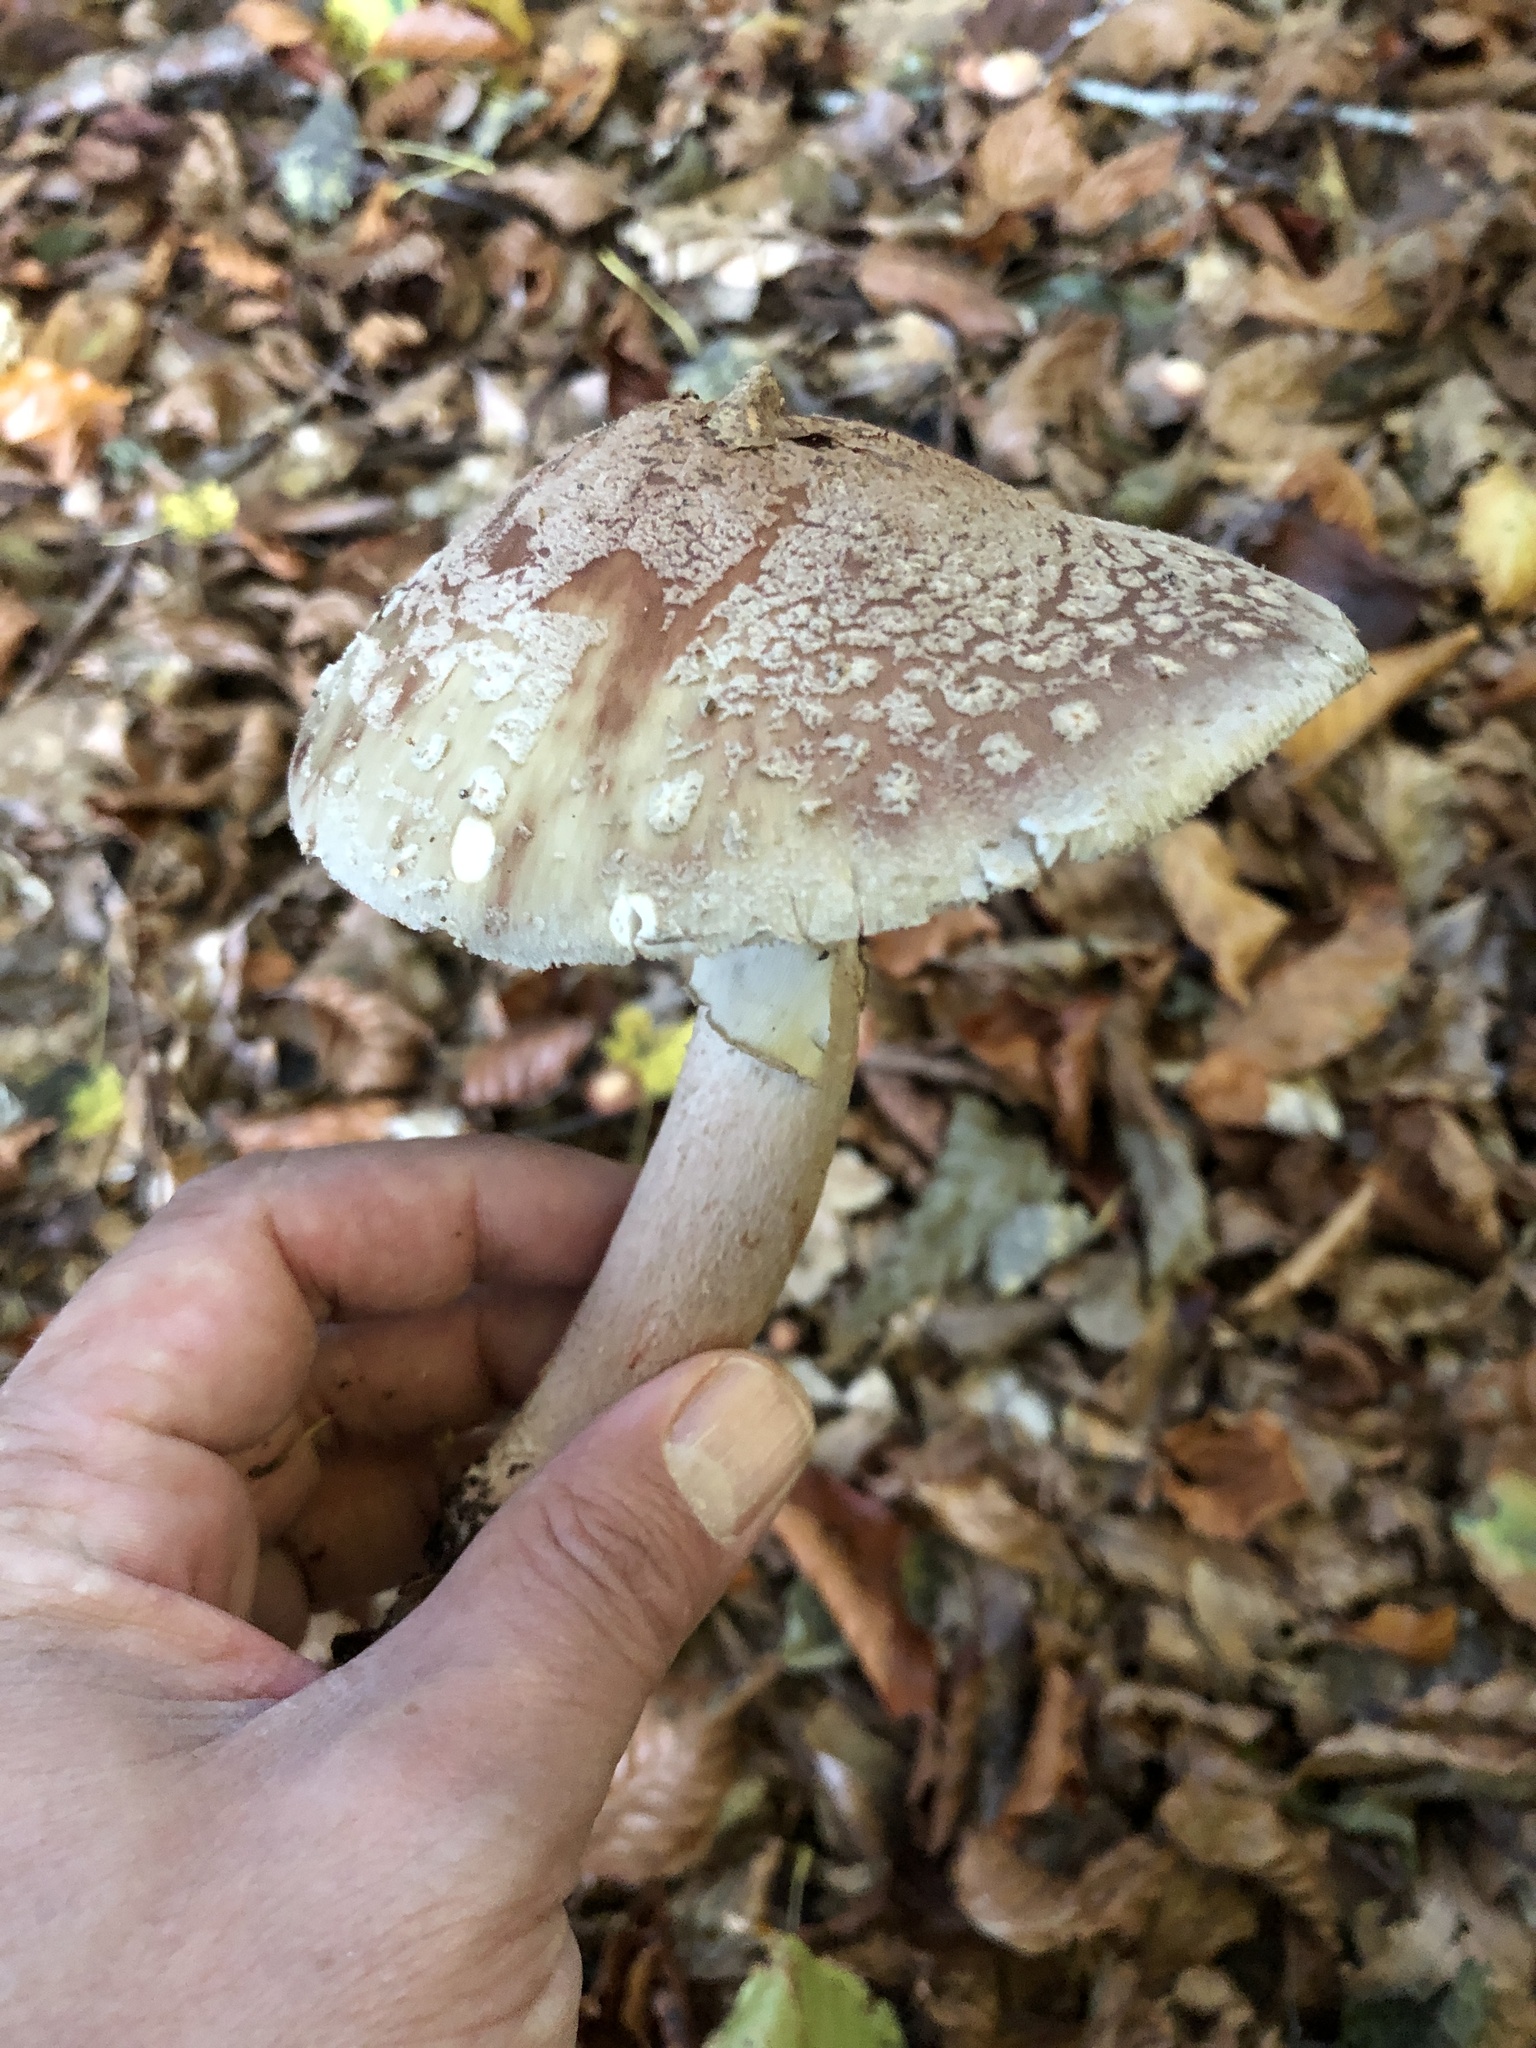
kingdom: Fungi
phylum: Basidiomycota
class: Agaricomycetes
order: Agaricales
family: Amanitaceae
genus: Amanita
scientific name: Amanita rubescens
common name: Blusher
